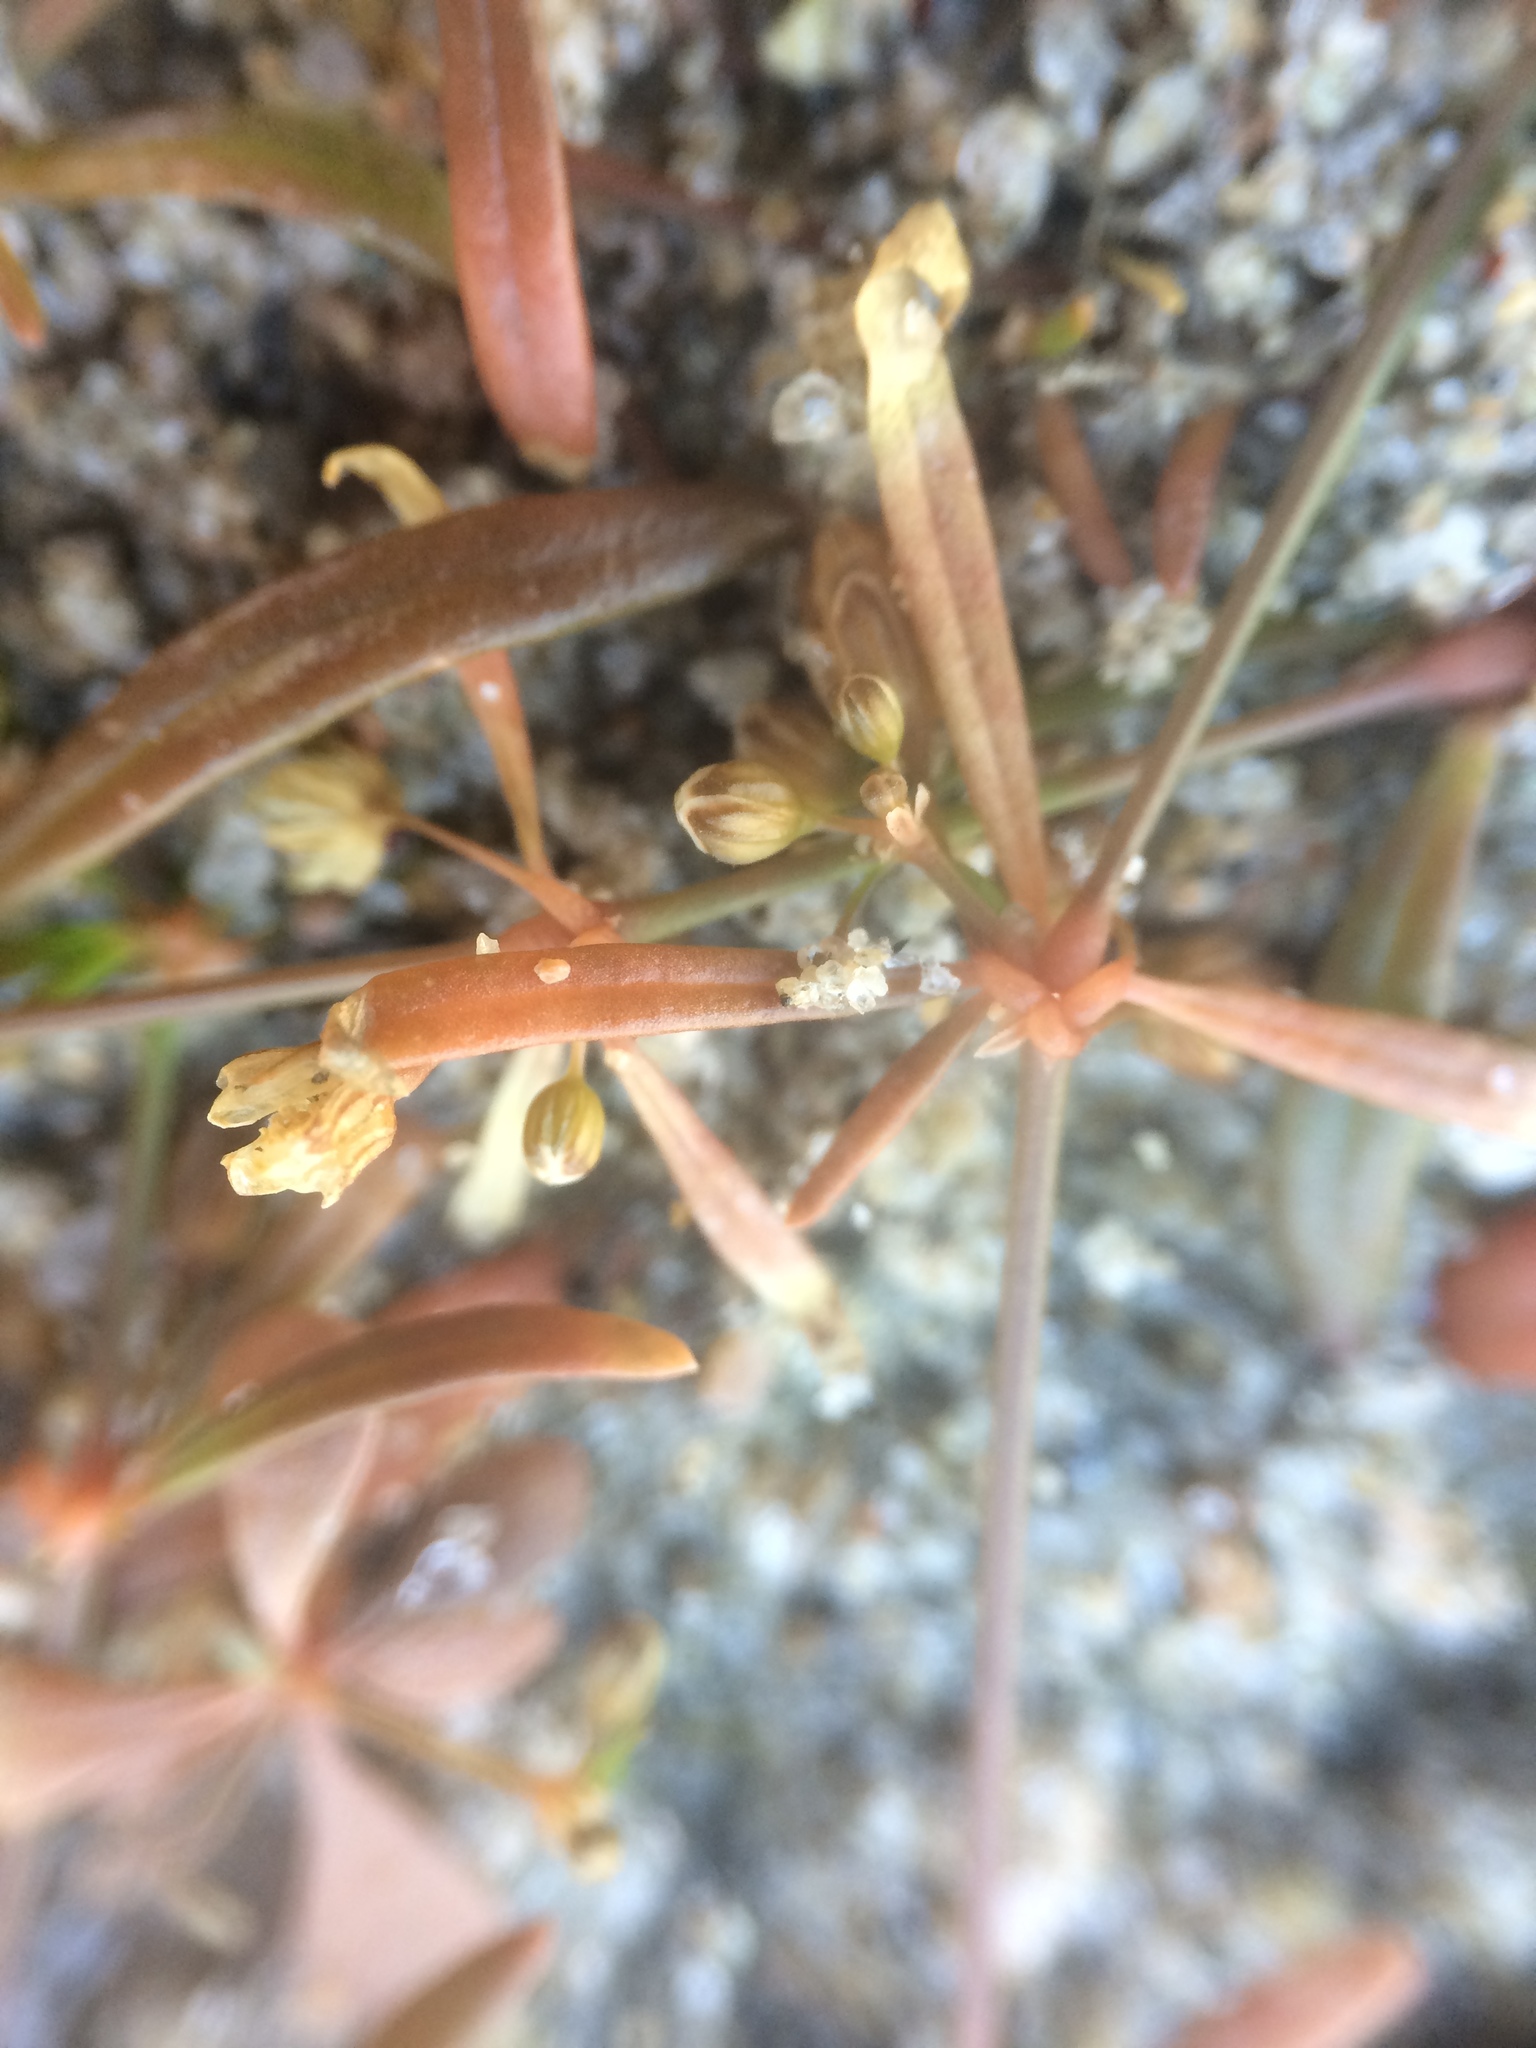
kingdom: Plantae
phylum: Tracheophyta
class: Magnoliopsida
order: Caryophyllales
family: Molluginaceae
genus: Mollugo
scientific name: Mollugo verticillata
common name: Green carpetweed
